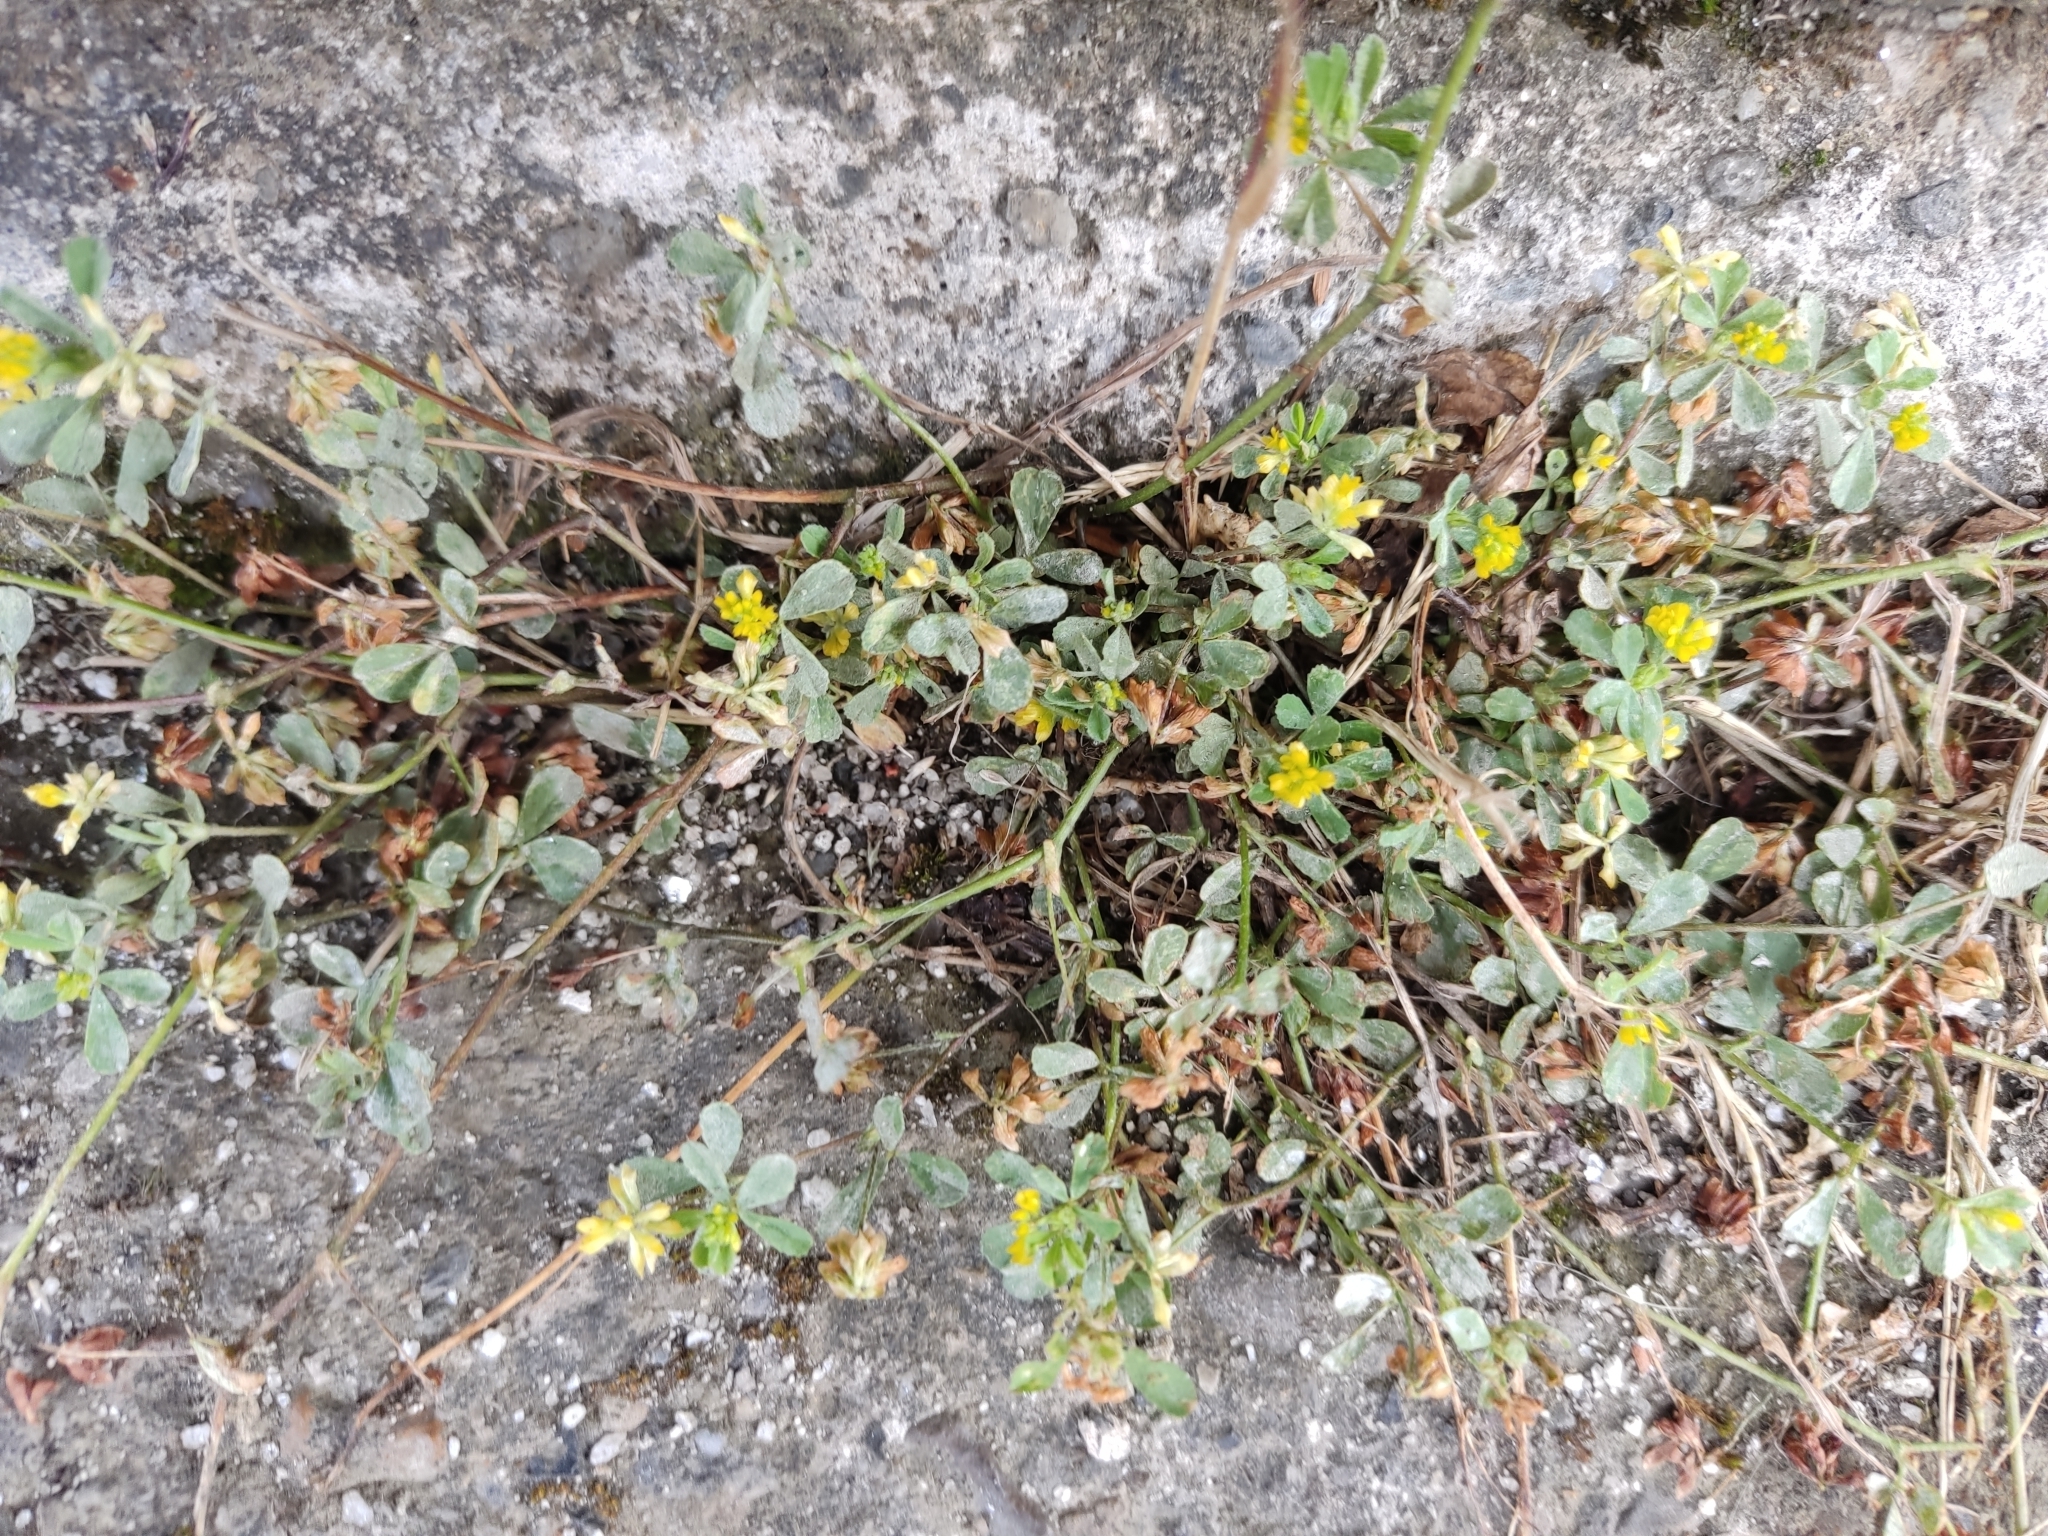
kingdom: Plantae
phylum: Tracheophyta
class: Magnoliopsida
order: Fabales
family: Fabaceae
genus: Trifolium
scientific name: Trifolium dubium
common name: Suckling clover
